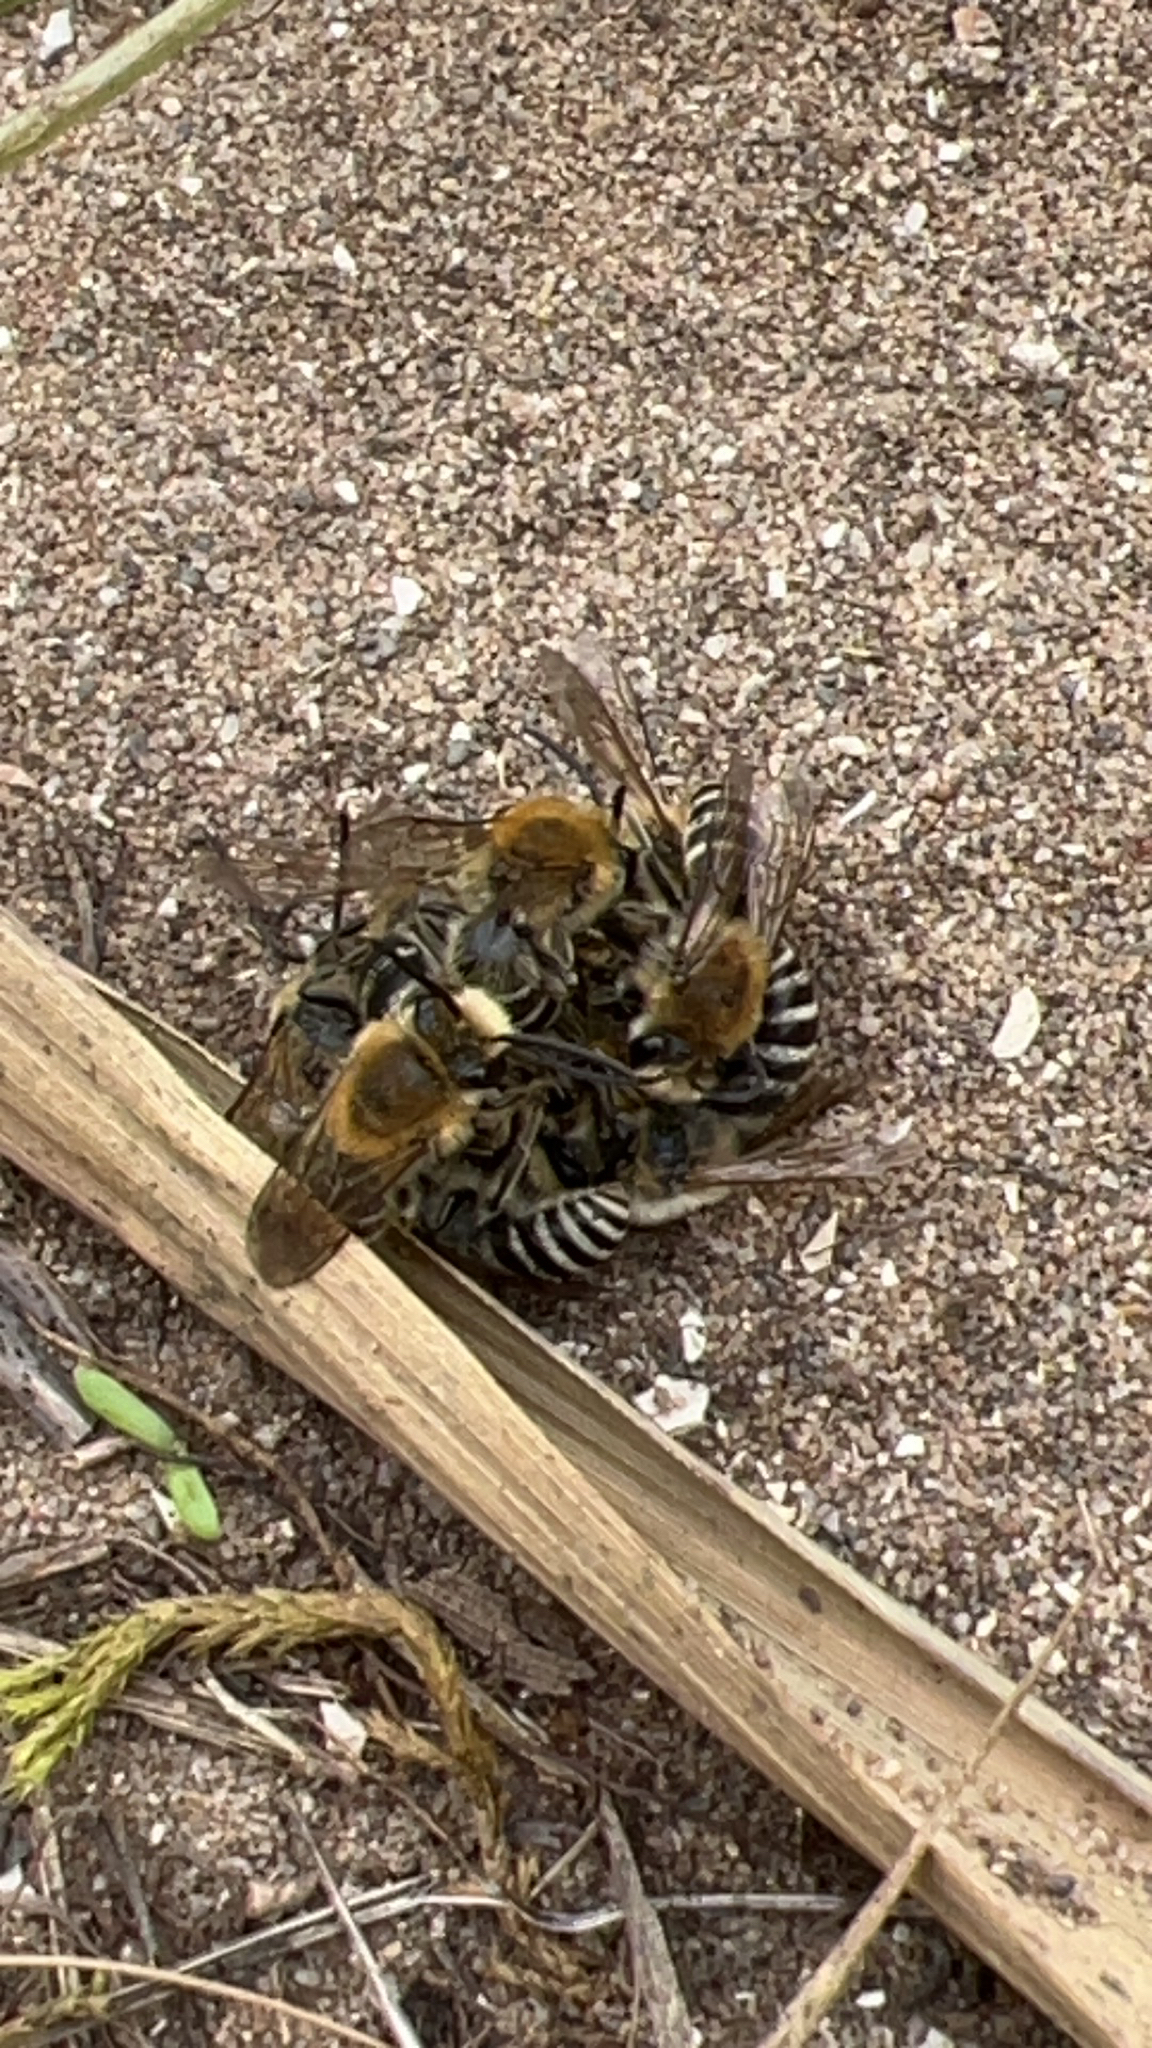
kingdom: Animalia
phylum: Arthropoda
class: Insecta
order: Hymenoptera
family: Colletidae
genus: Colletes
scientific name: Colletes hederae
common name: Ivy bee
